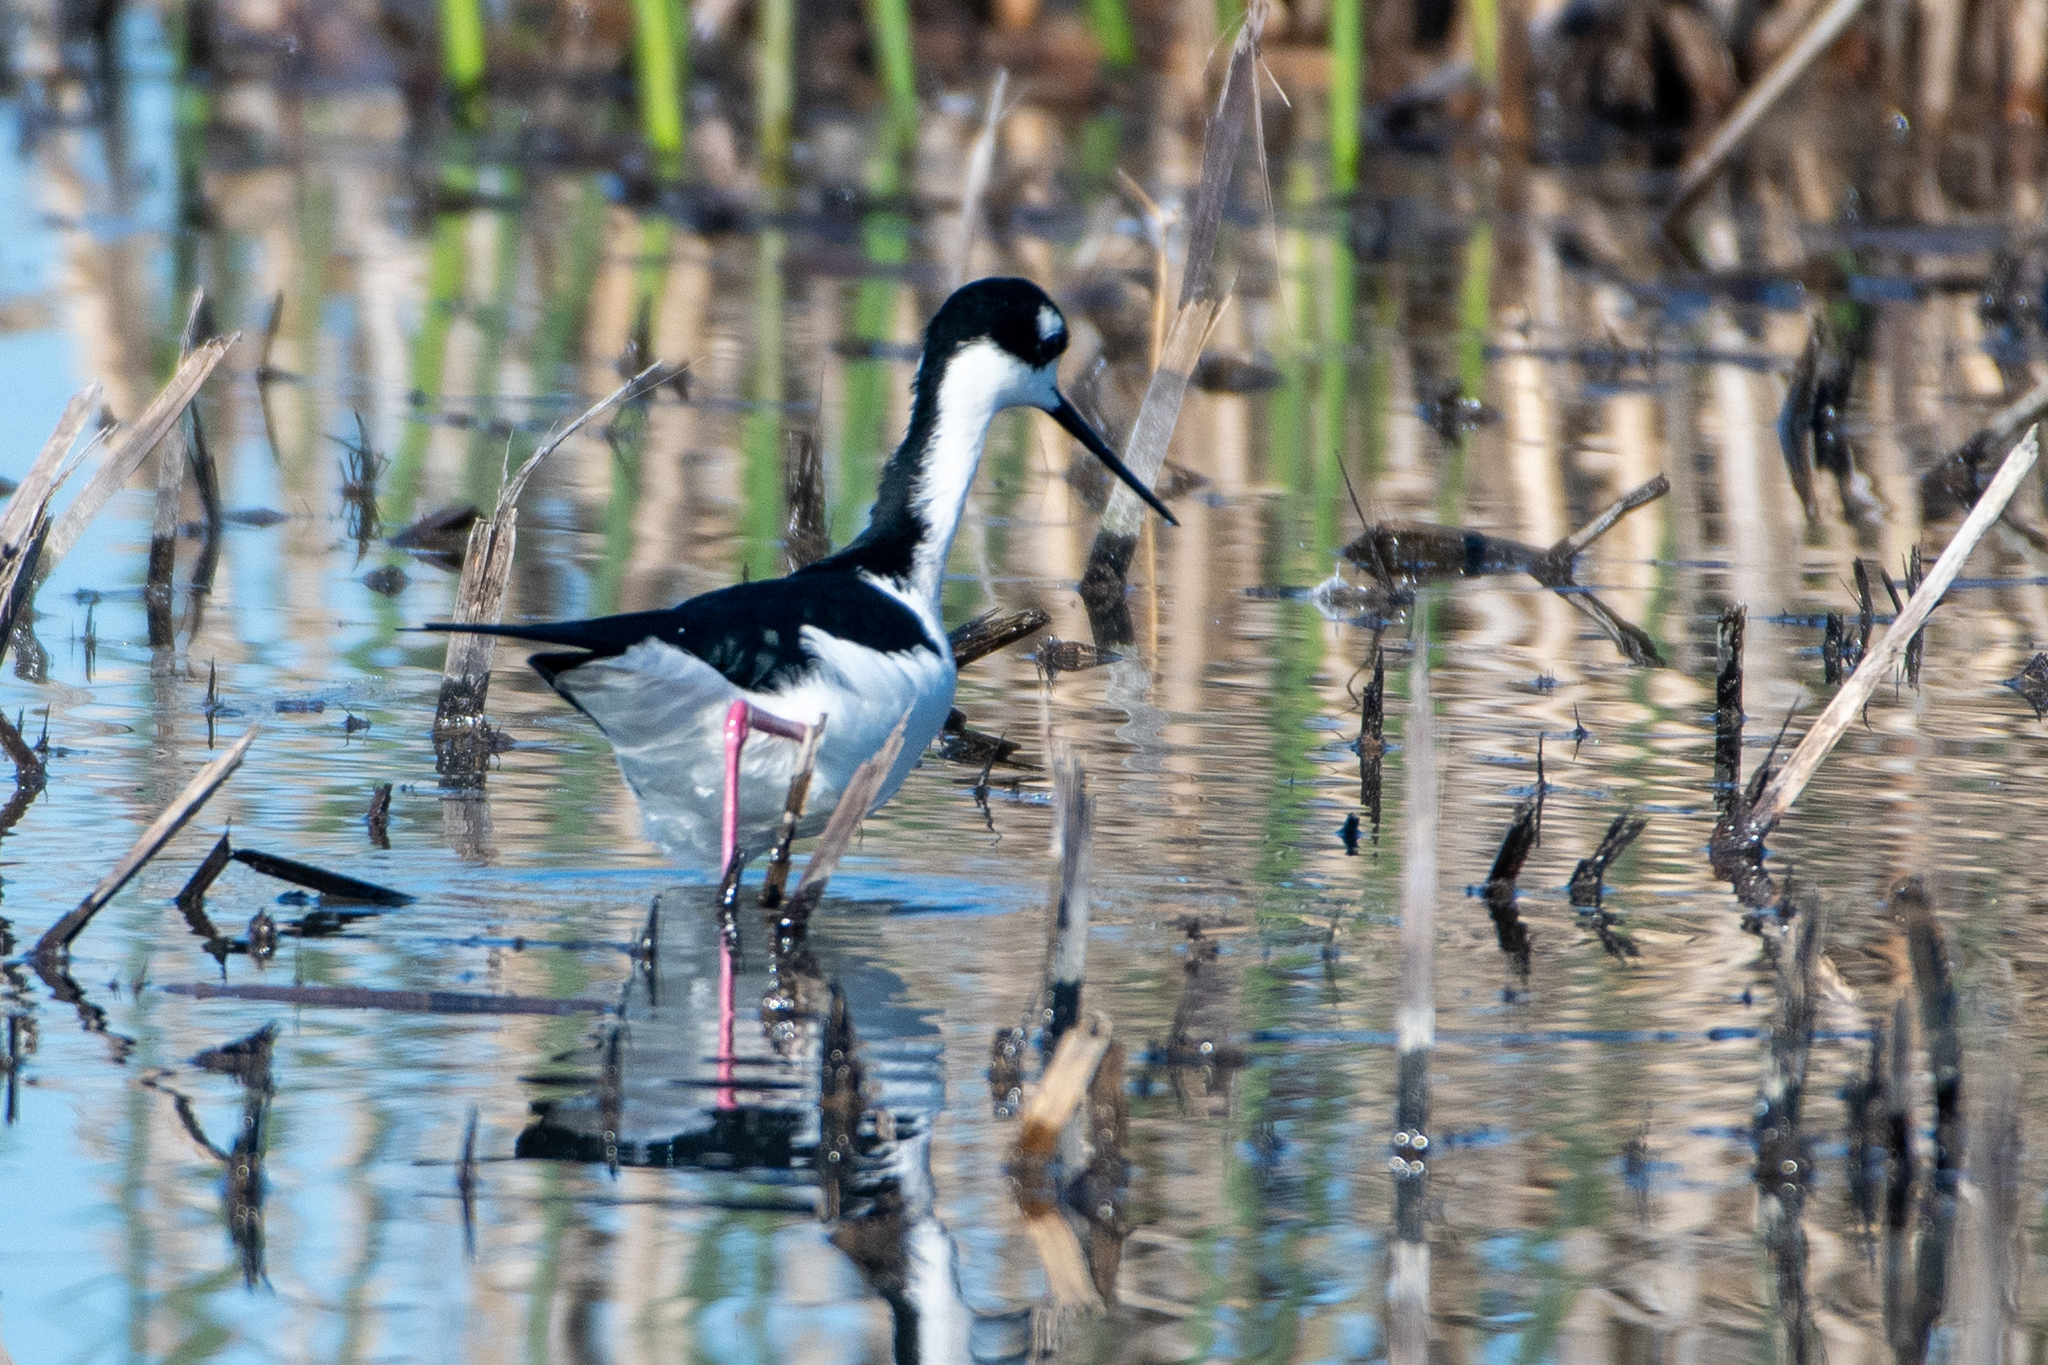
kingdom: Animalia
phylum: Chordata
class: Aves
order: Charadriiformes
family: Recurvirostridae
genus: Himantopus
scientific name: Himantopus mexicanus
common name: Black-necked stilt
